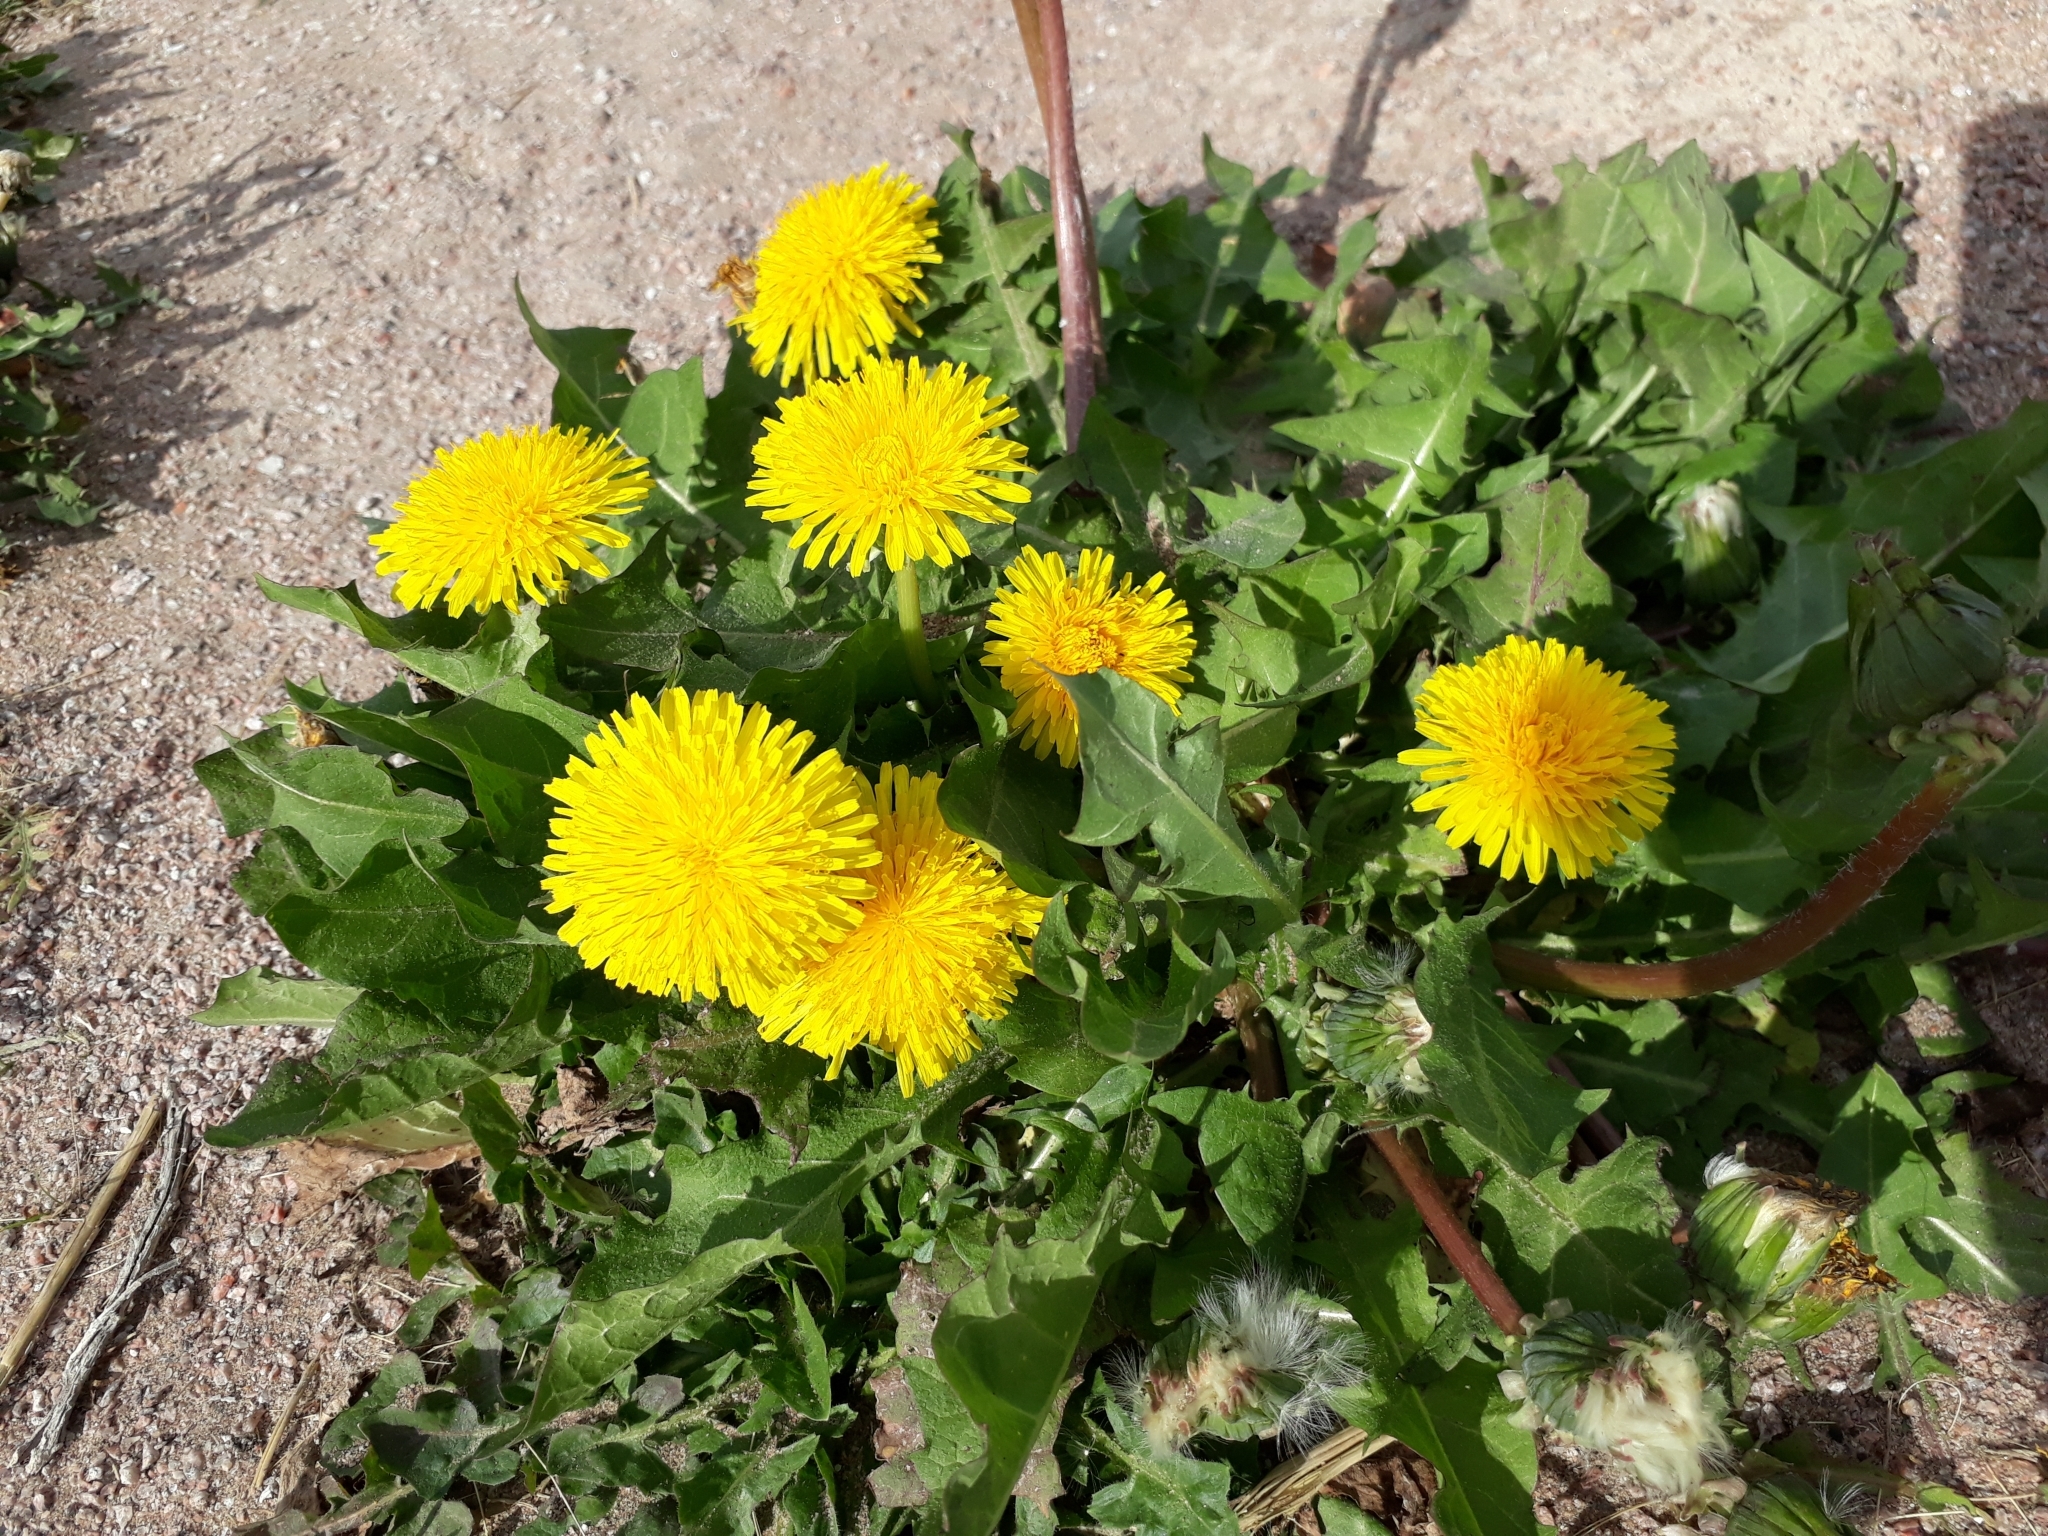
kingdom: Plantae
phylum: Tracheophyta
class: Magnoliopsida
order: Asterales
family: Asteraceae
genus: Taraxacum
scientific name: Taraxacum officinale
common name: Common dandelion
